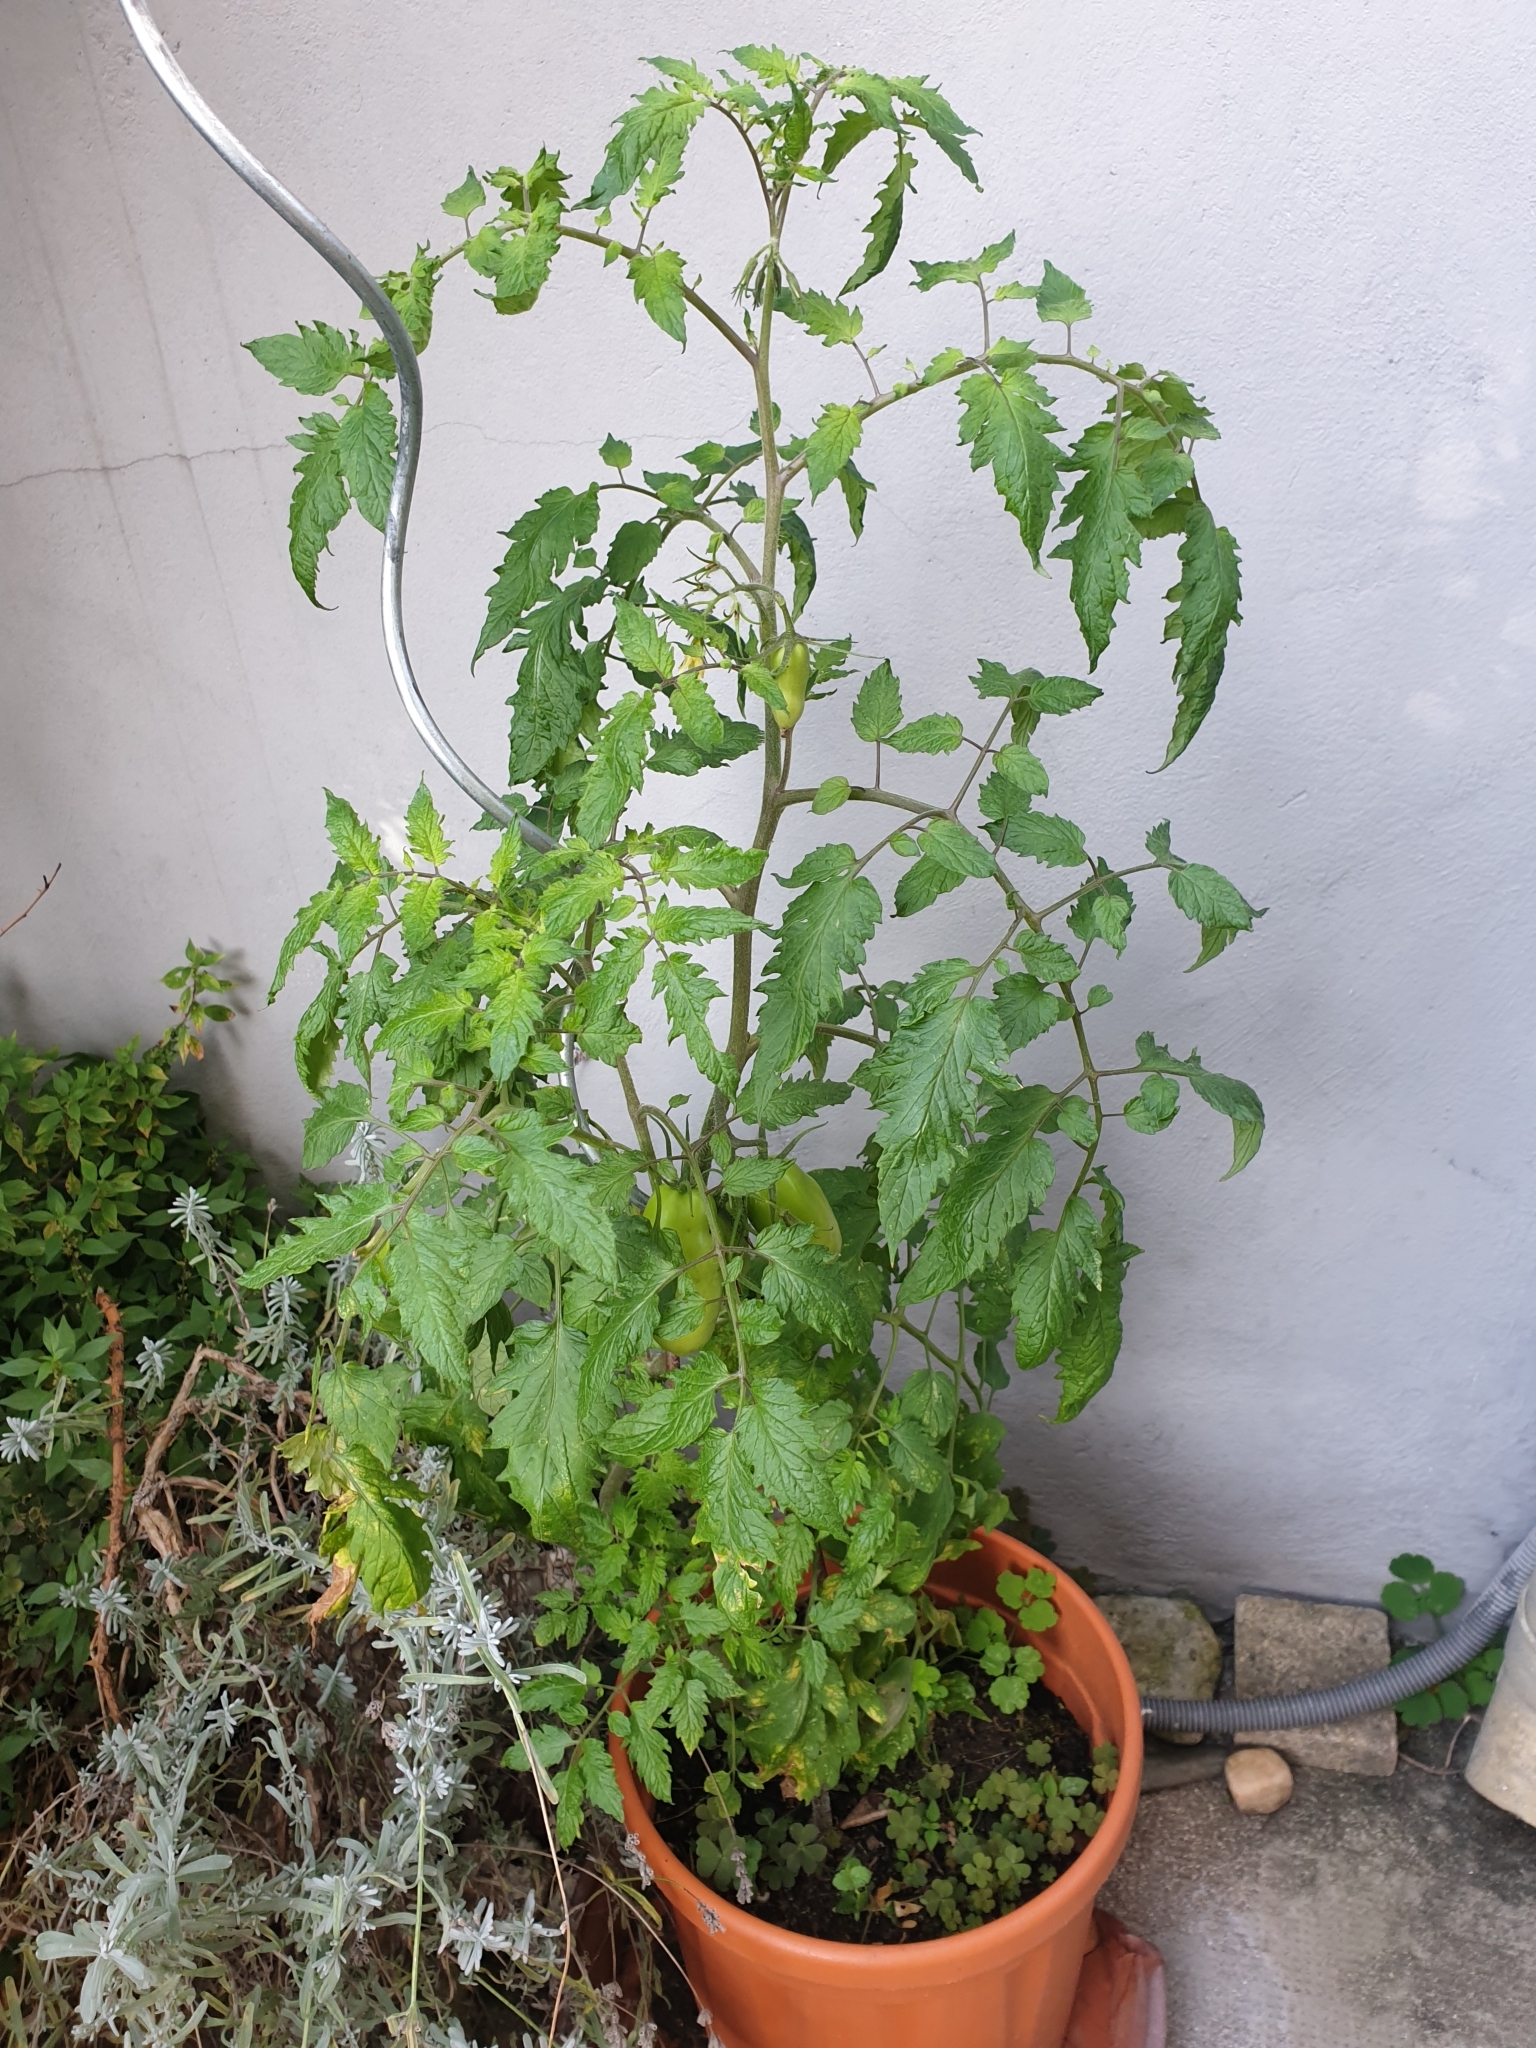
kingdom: Plantae
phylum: Tracheophyta
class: Magnoliopsida
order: Solanales
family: Solanaceae
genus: Solanum
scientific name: Solanum lycopersicum
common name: Garden tomato
